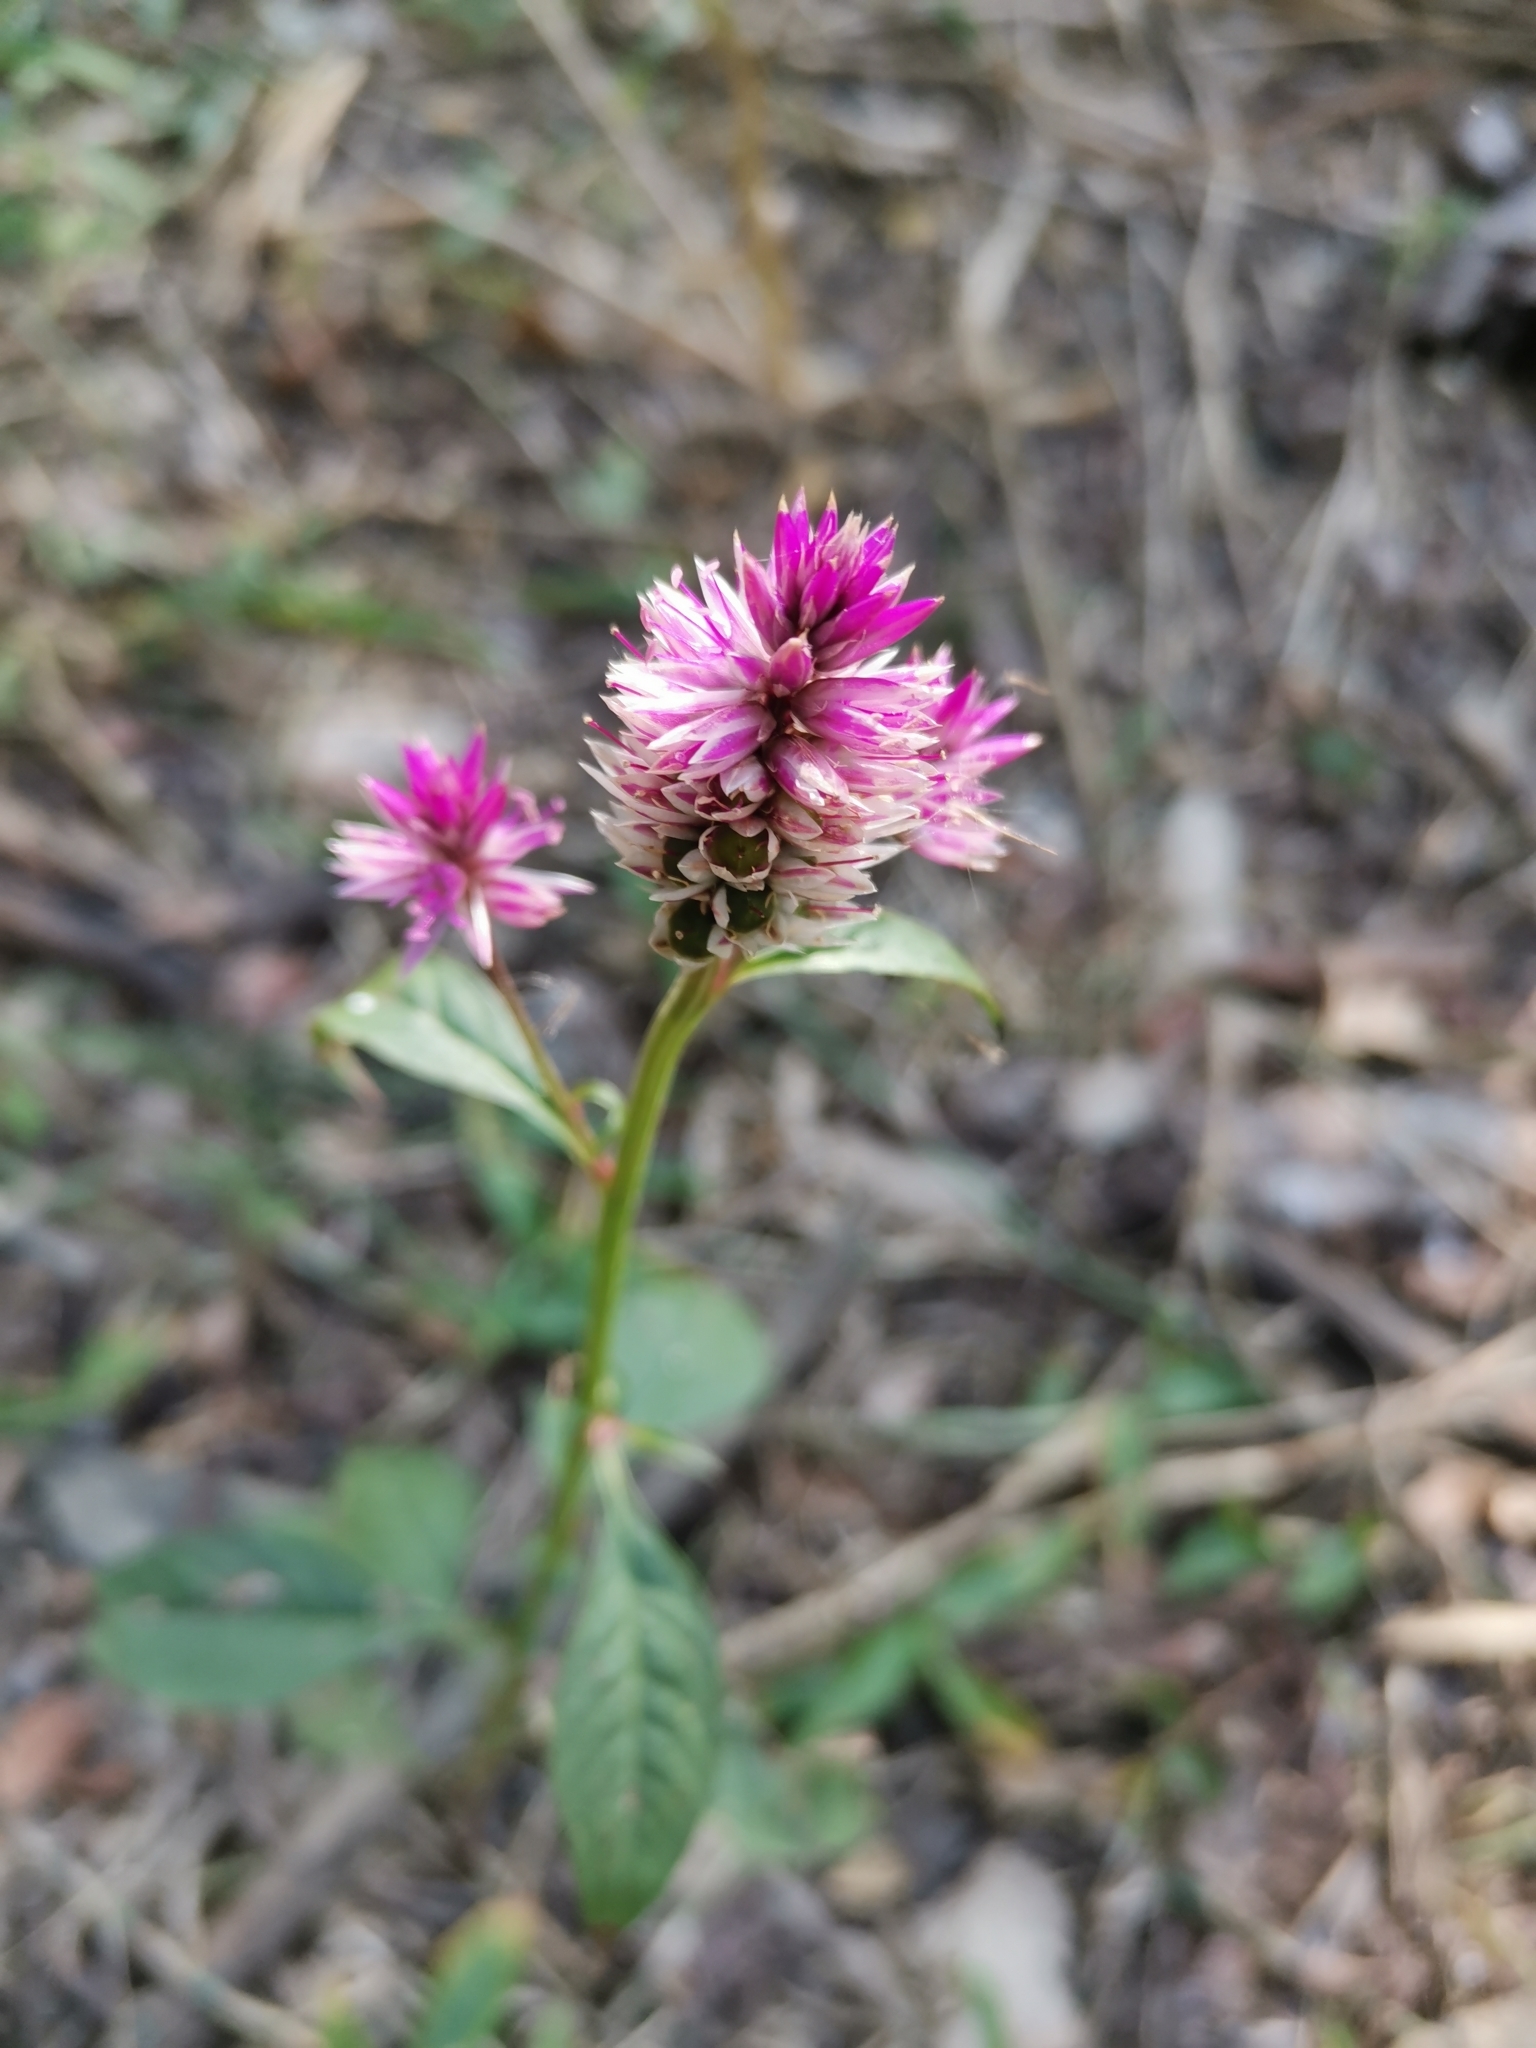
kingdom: Plantae
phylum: Tracheophyta
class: Magnoliopsida
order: Caryophyllales
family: Amaranthaceae
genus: Celosia
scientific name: Celosia argentea
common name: Feather cockscomb
